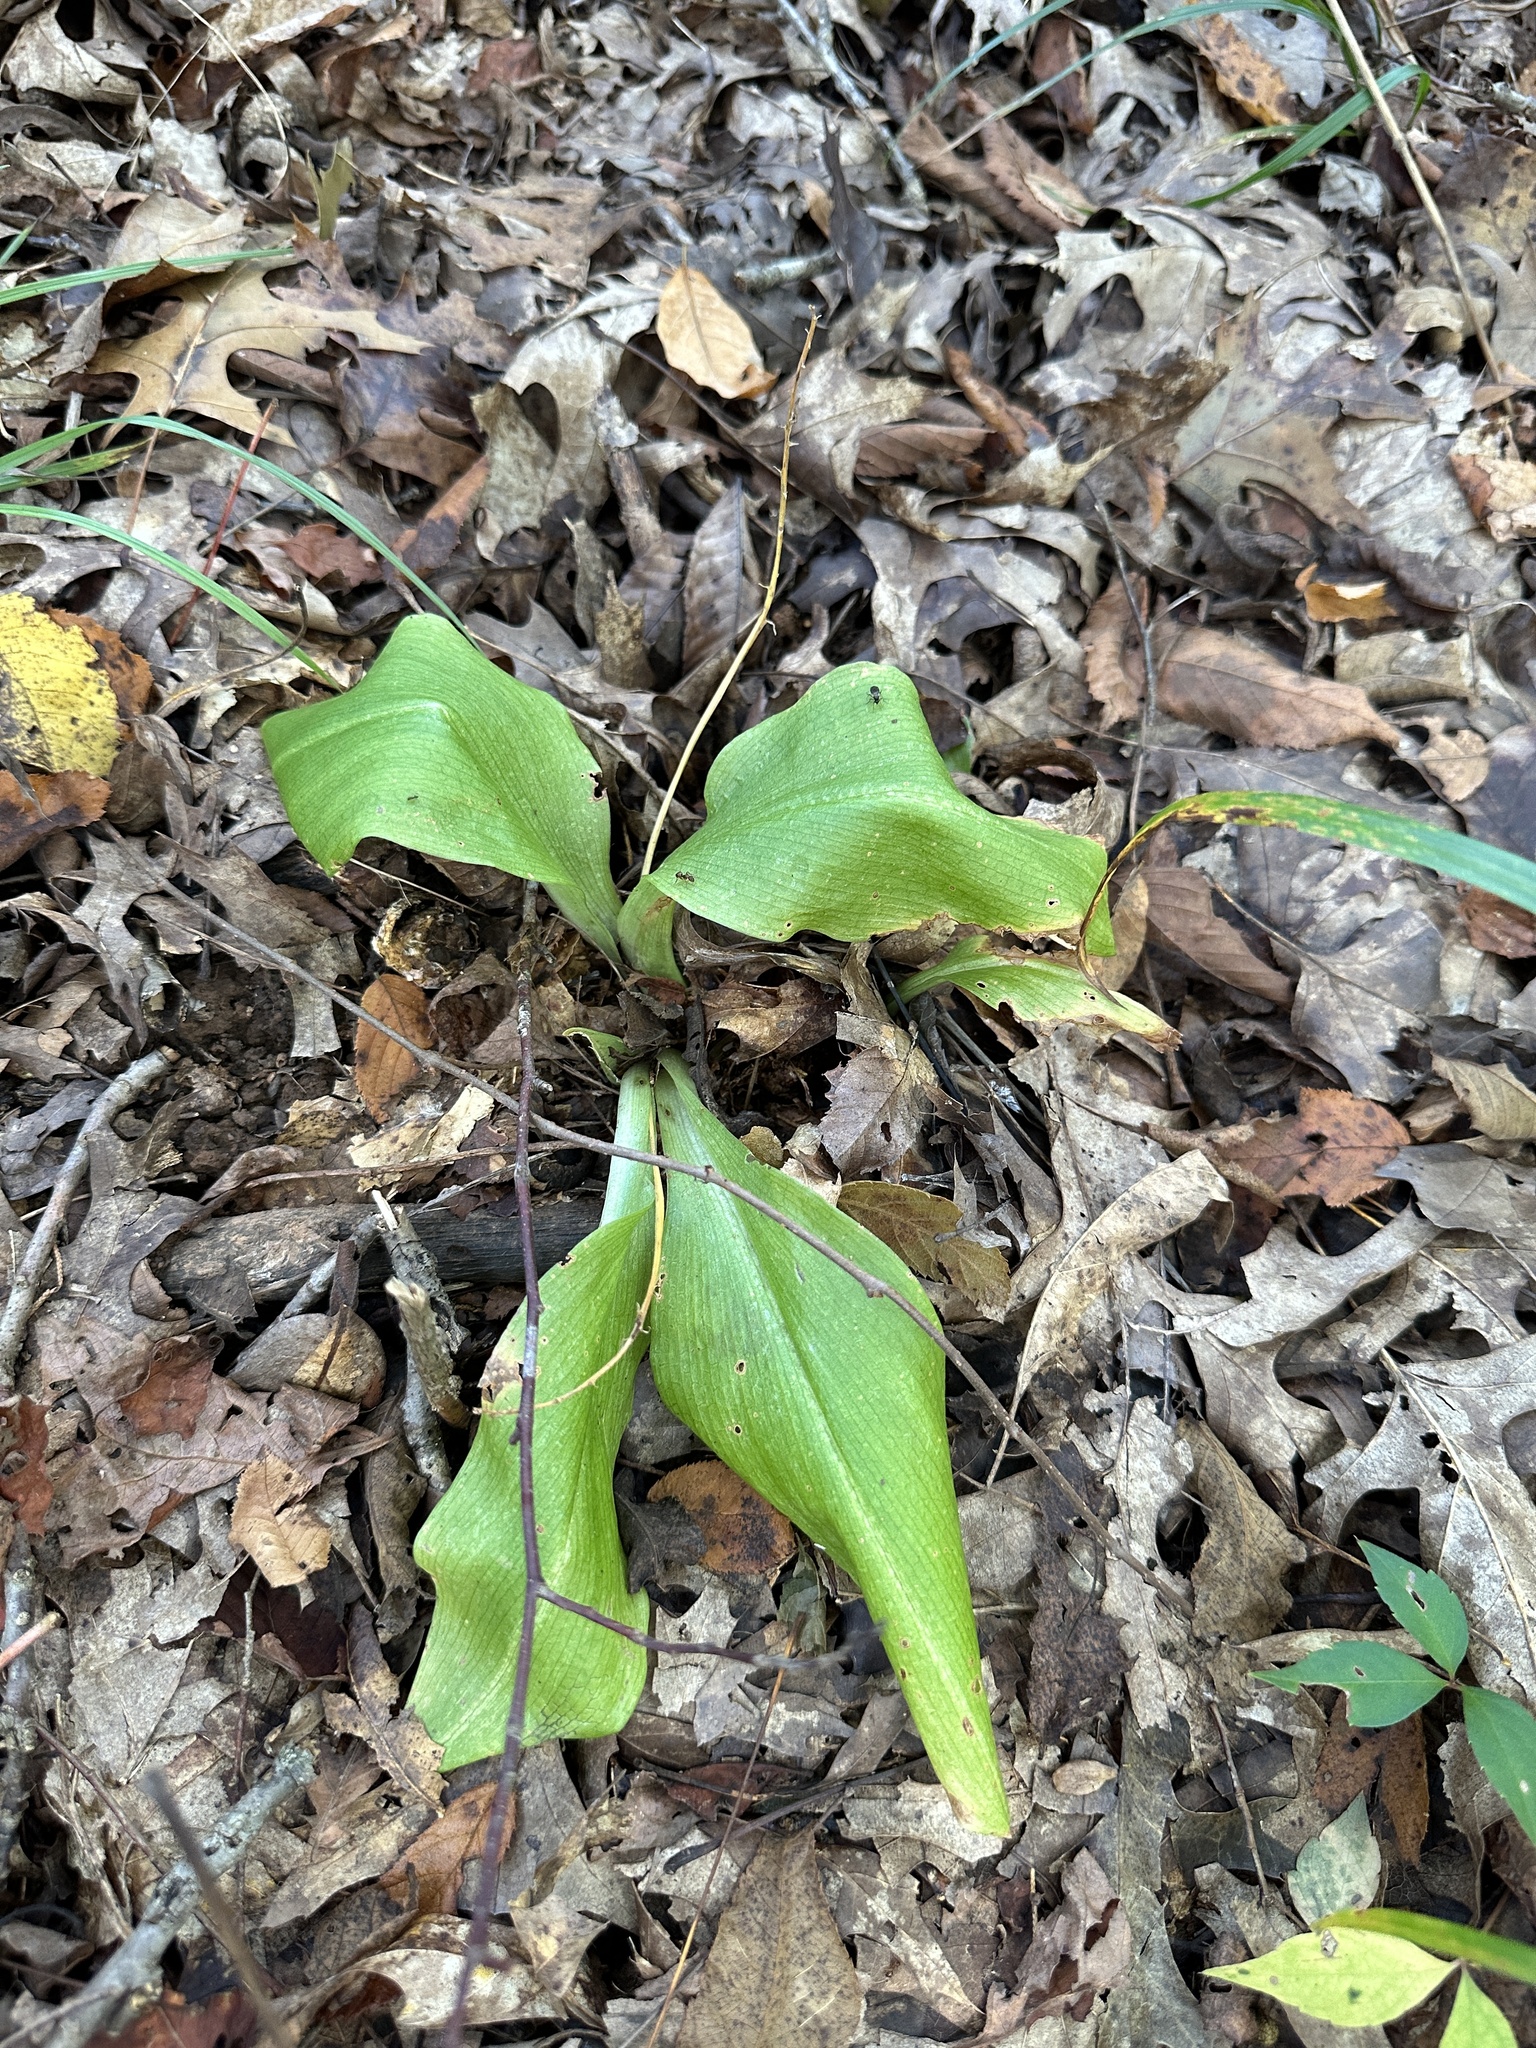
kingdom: Plantae
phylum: Tracheophyta
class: Liliopsida
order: Asparagales
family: Orchidaceae
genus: Liparis
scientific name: Liparis liliifolia
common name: Brown wide-lip orchid
